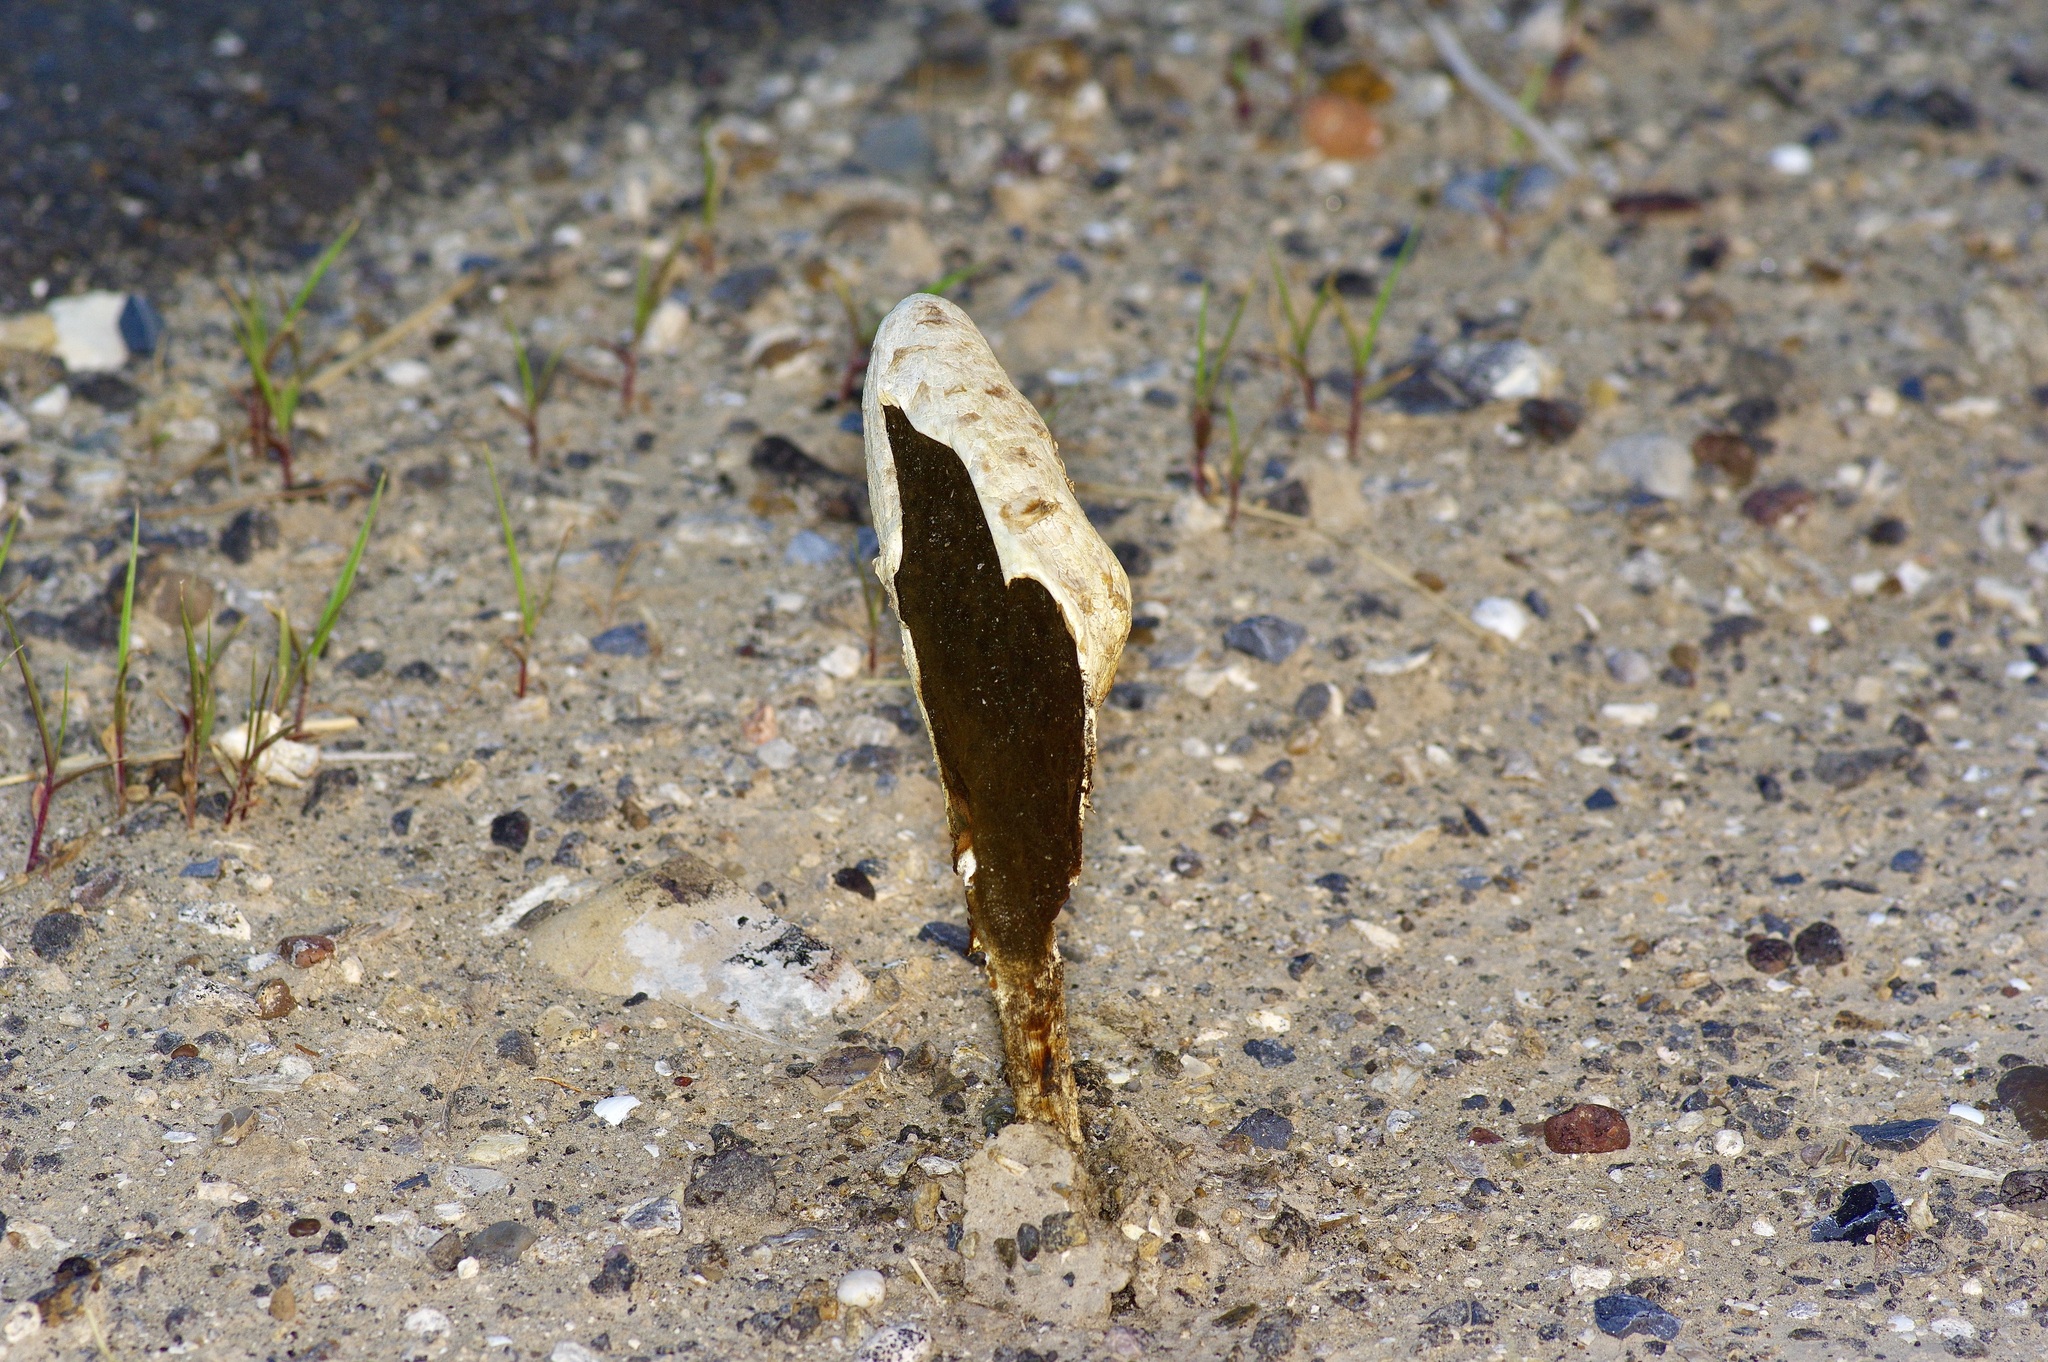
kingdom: Fungi
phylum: Basidiomycota
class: Agaricomycetes
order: Agaricales
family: Agaricaceae
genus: Podaxis
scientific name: Podaxis pistillaris
